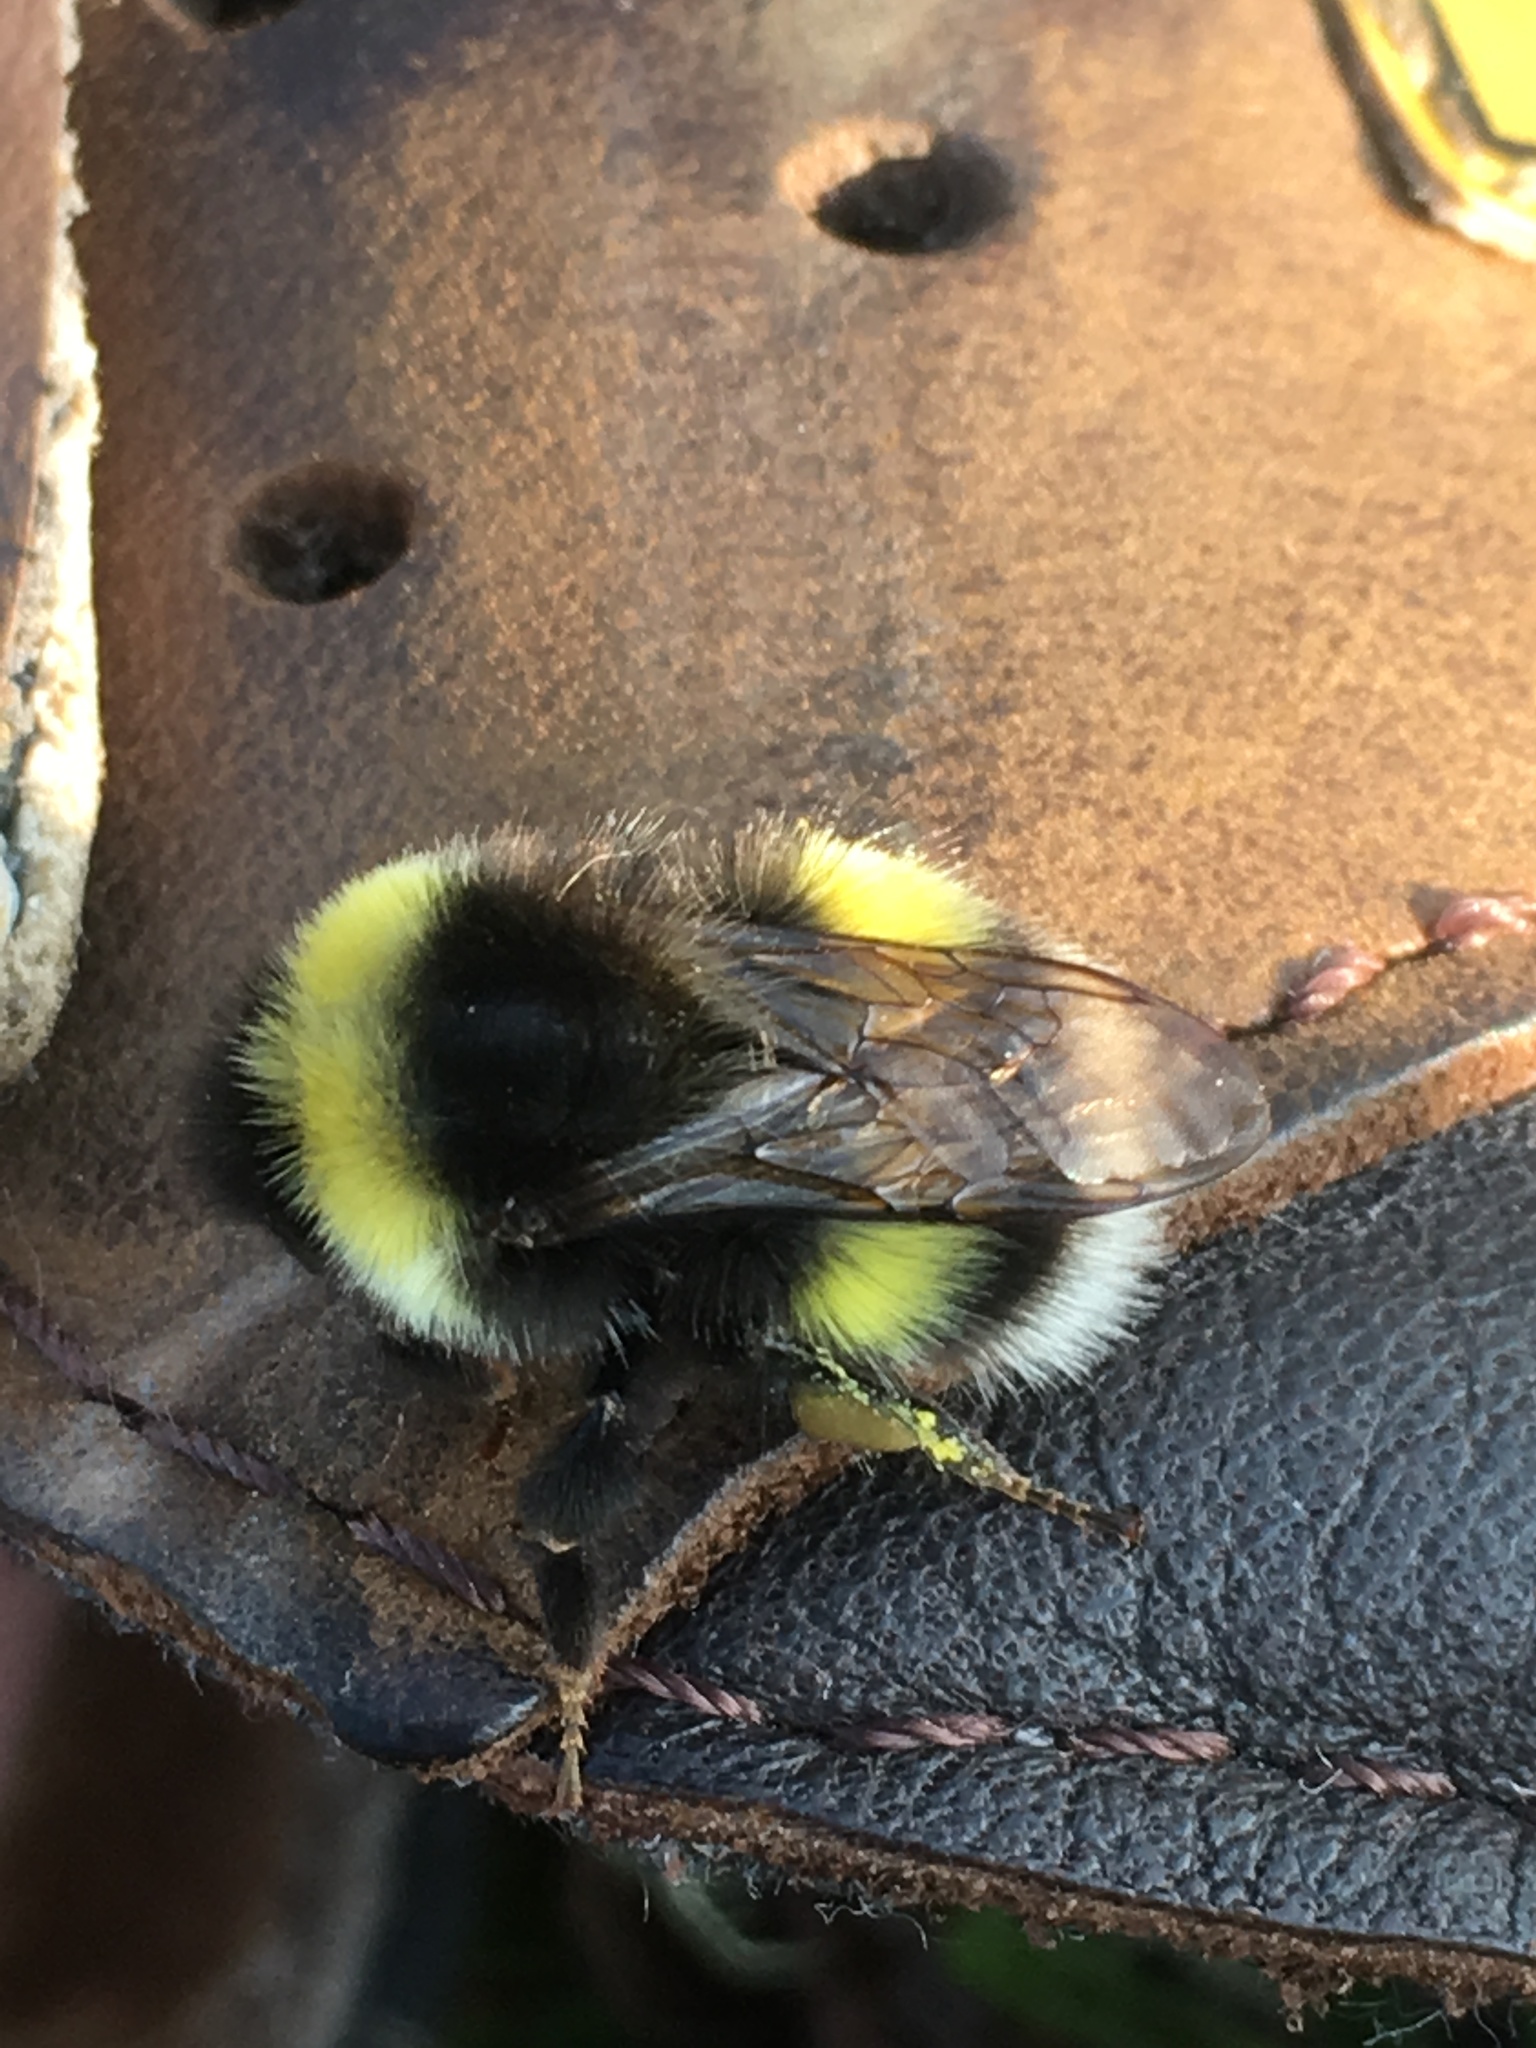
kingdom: Animalia
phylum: Arthropoda
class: Insecta
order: Hymenoptera
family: Apidae
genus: Bombus
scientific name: Bombus cryptarum
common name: Cryptic bumblebee
